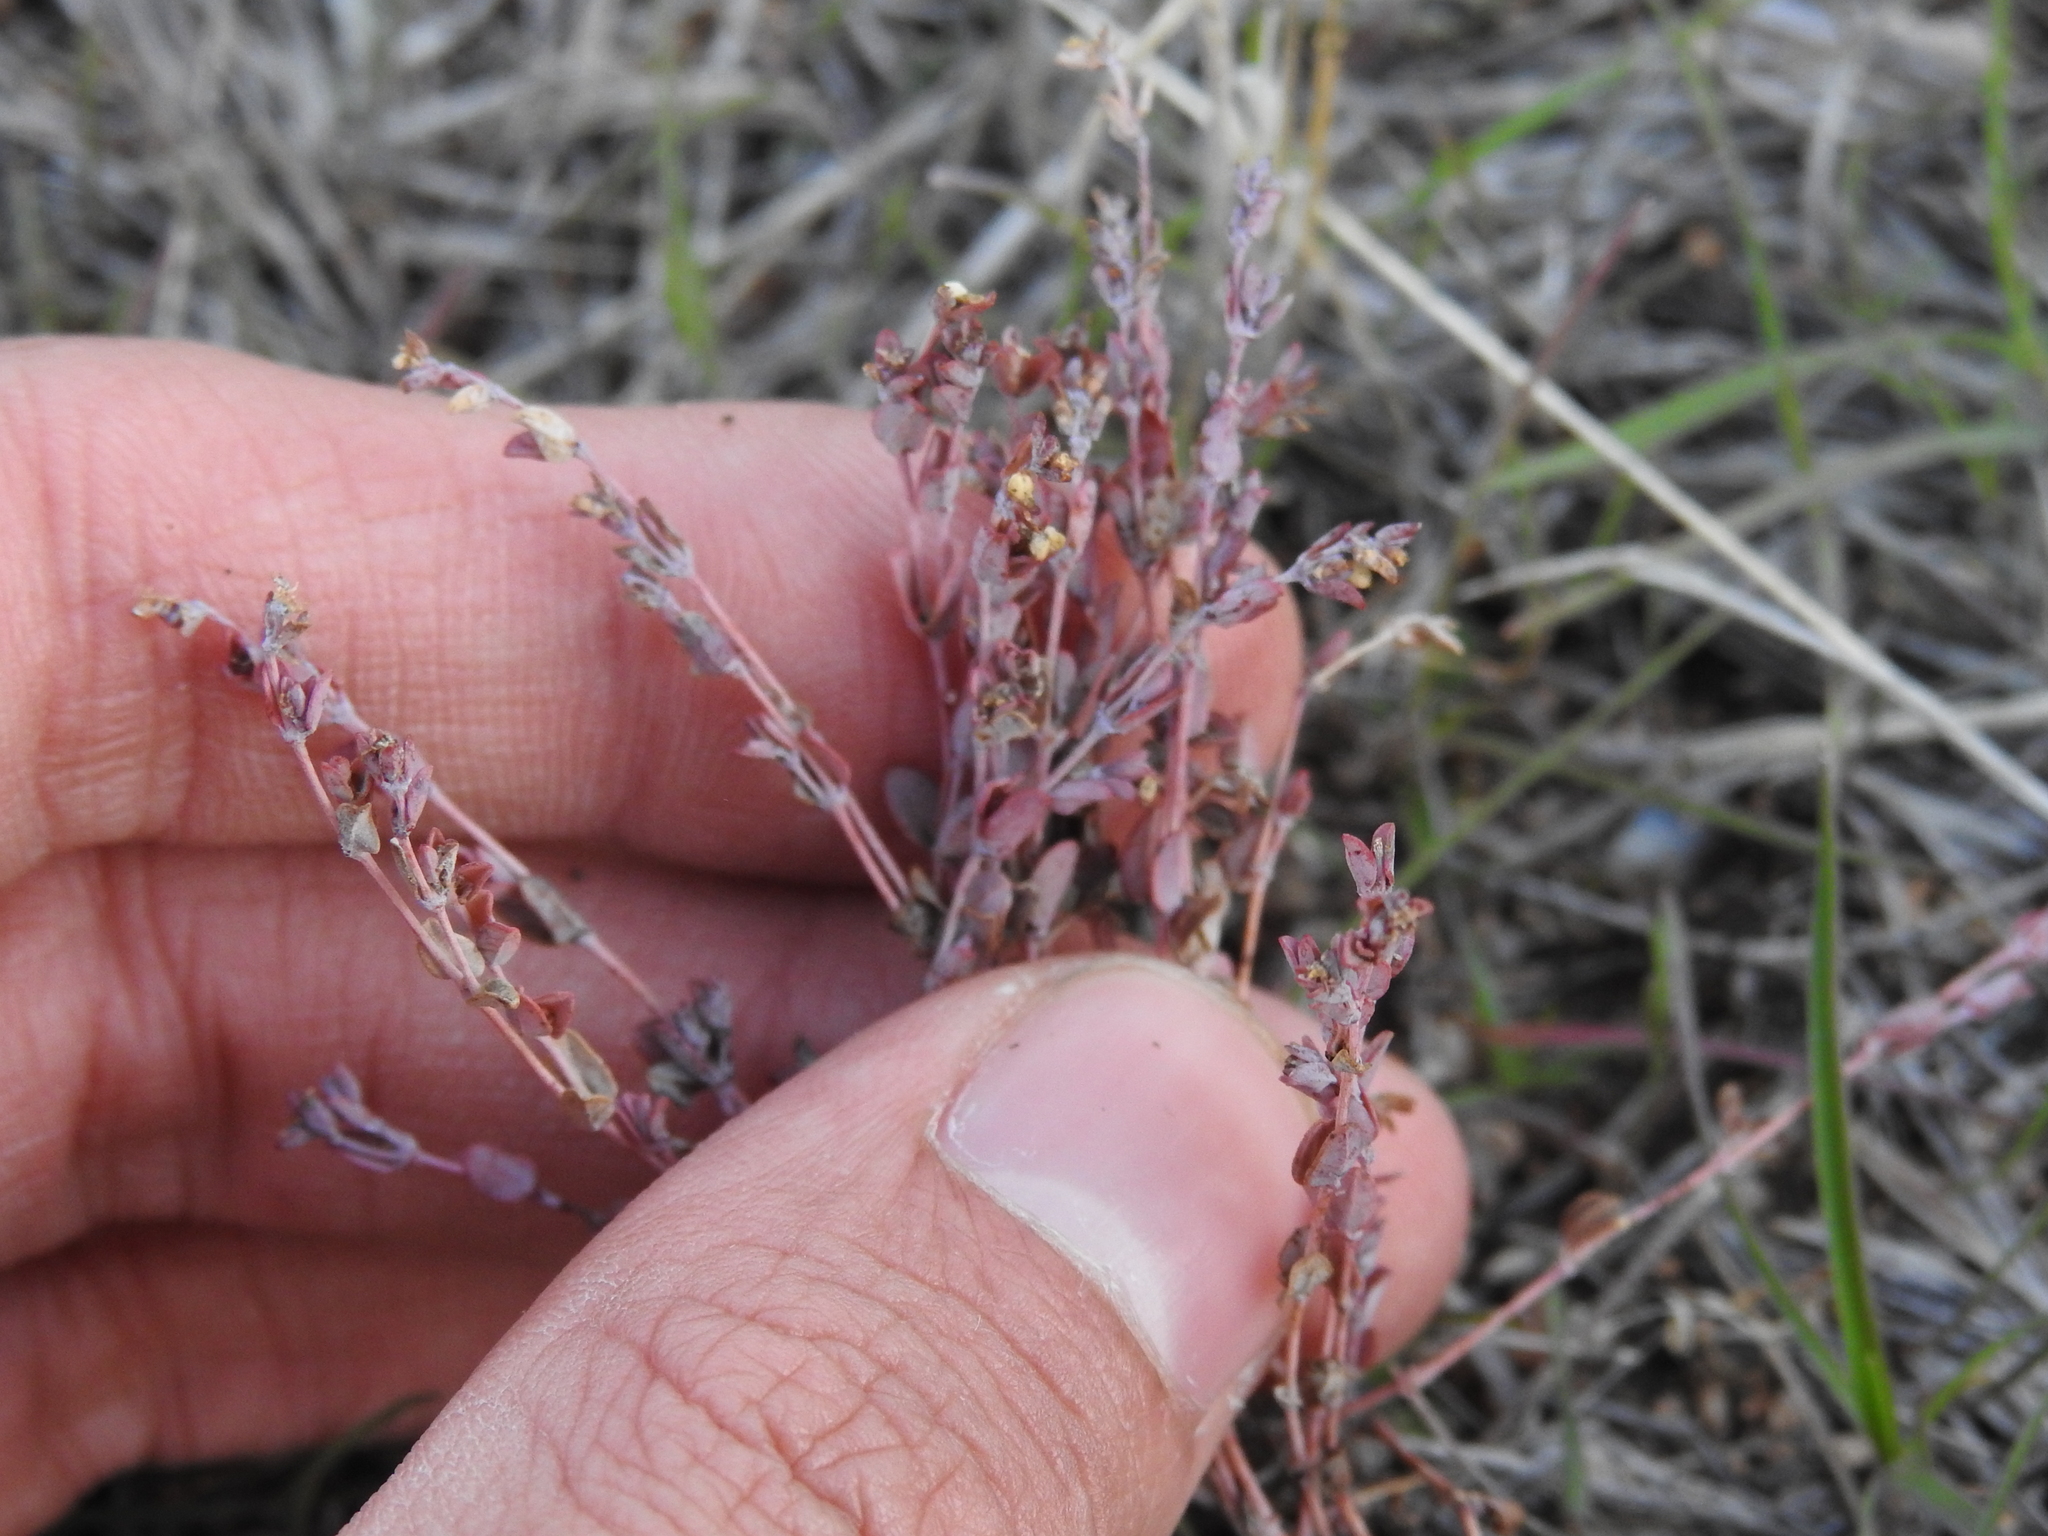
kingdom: Plantae
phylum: Tracheophyta
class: Magnoliopsida
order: Malpighiales
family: Euphorbiaceae
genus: Euphorbia
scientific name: Euphorbia polycarpa
